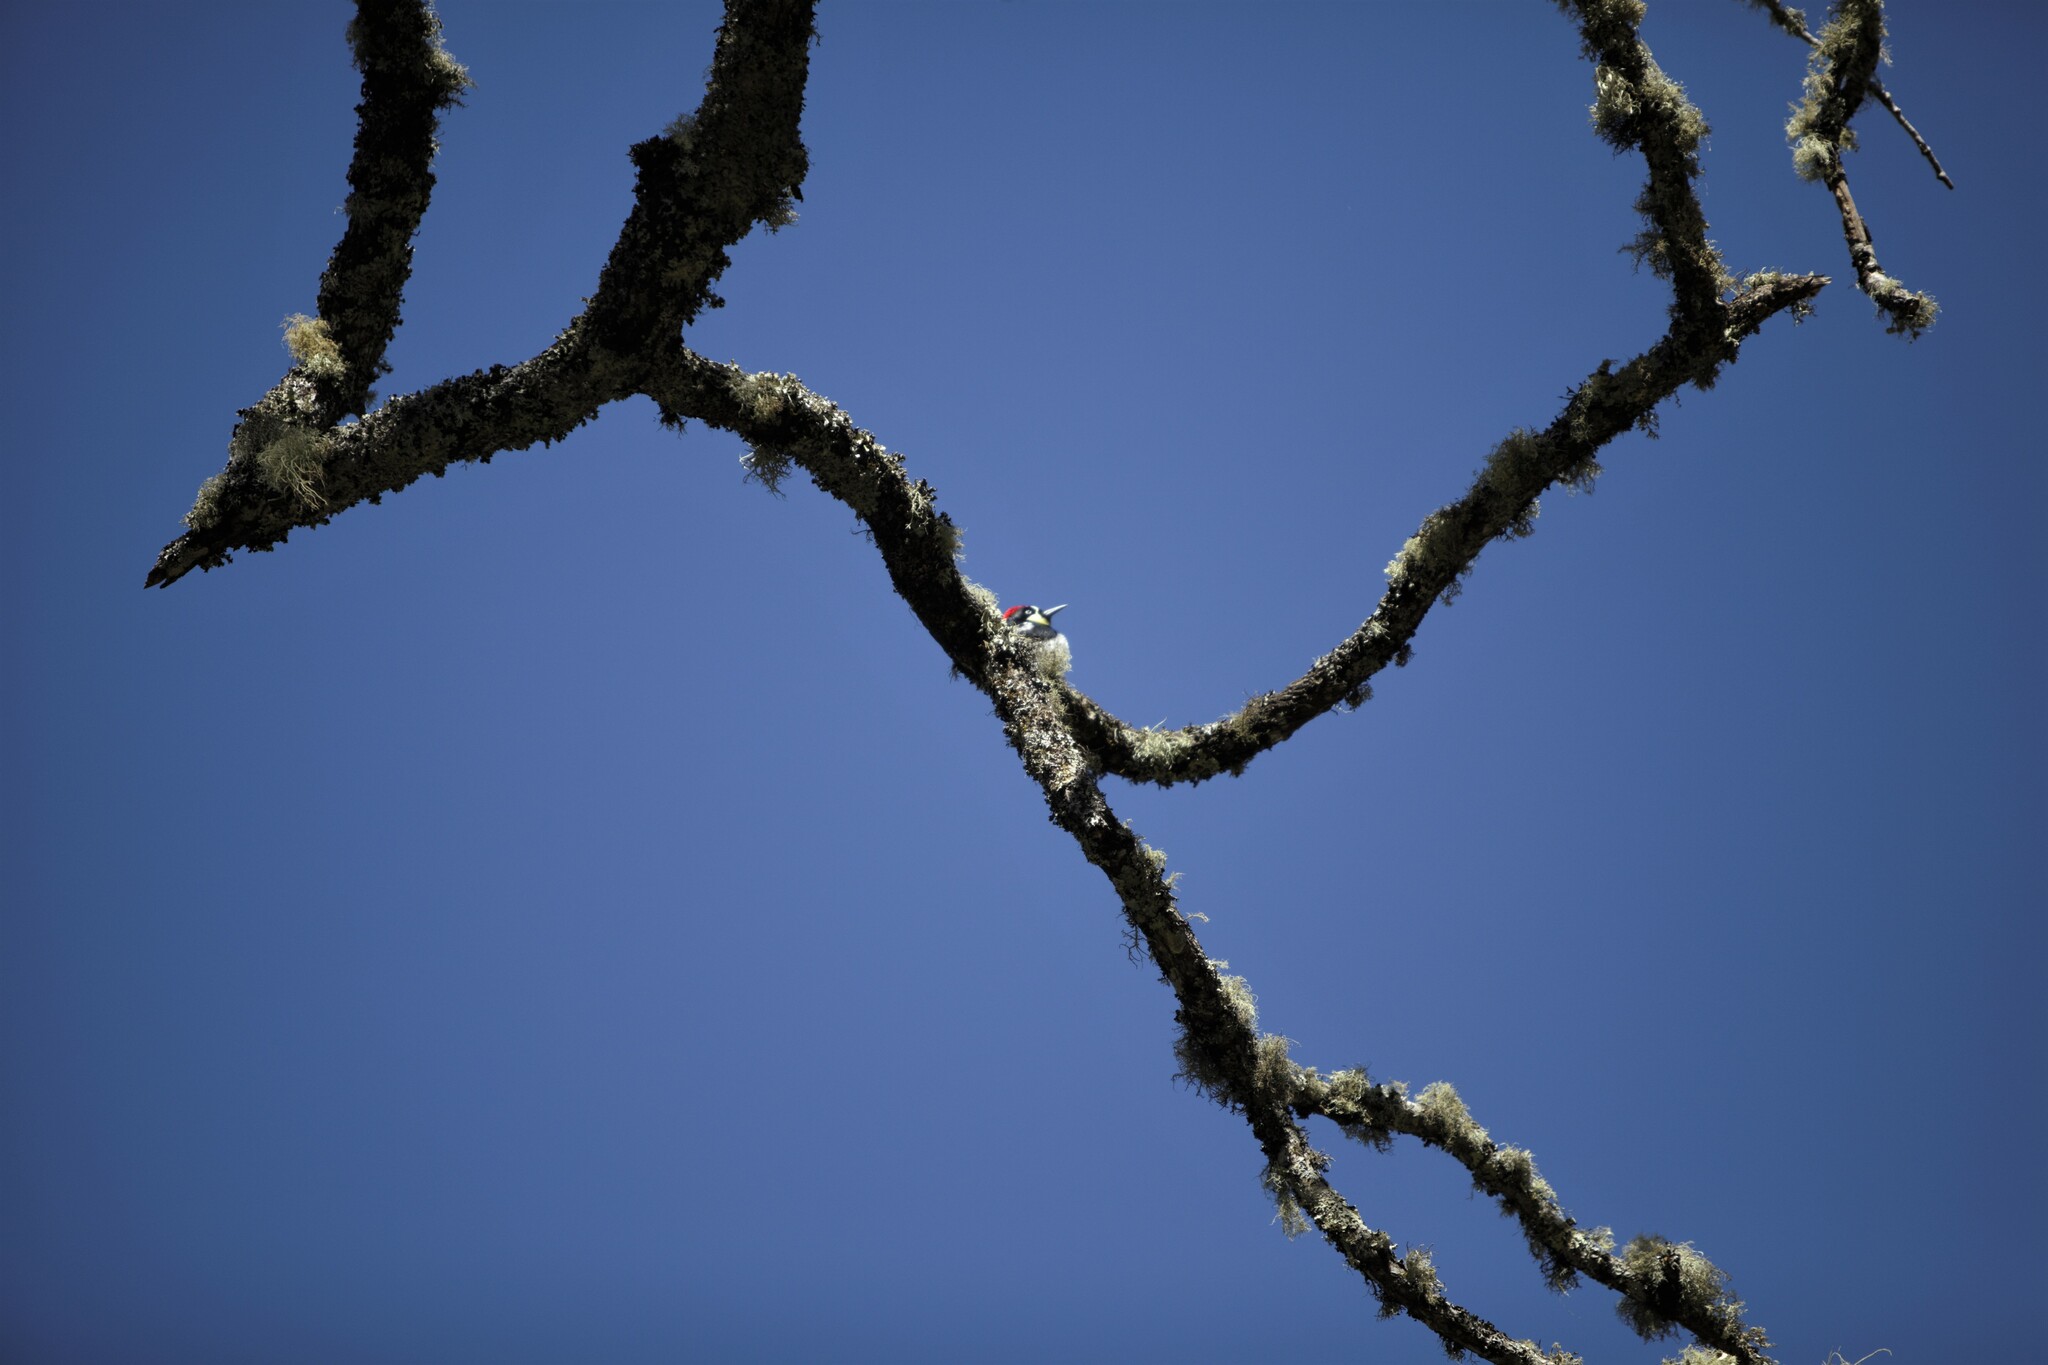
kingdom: Animalia
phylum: Chordata
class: Aves
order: Piciformes
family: Picidae
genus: Melanerpes
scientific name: Melanerpes formicivorus
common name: Acorn woodpecker
